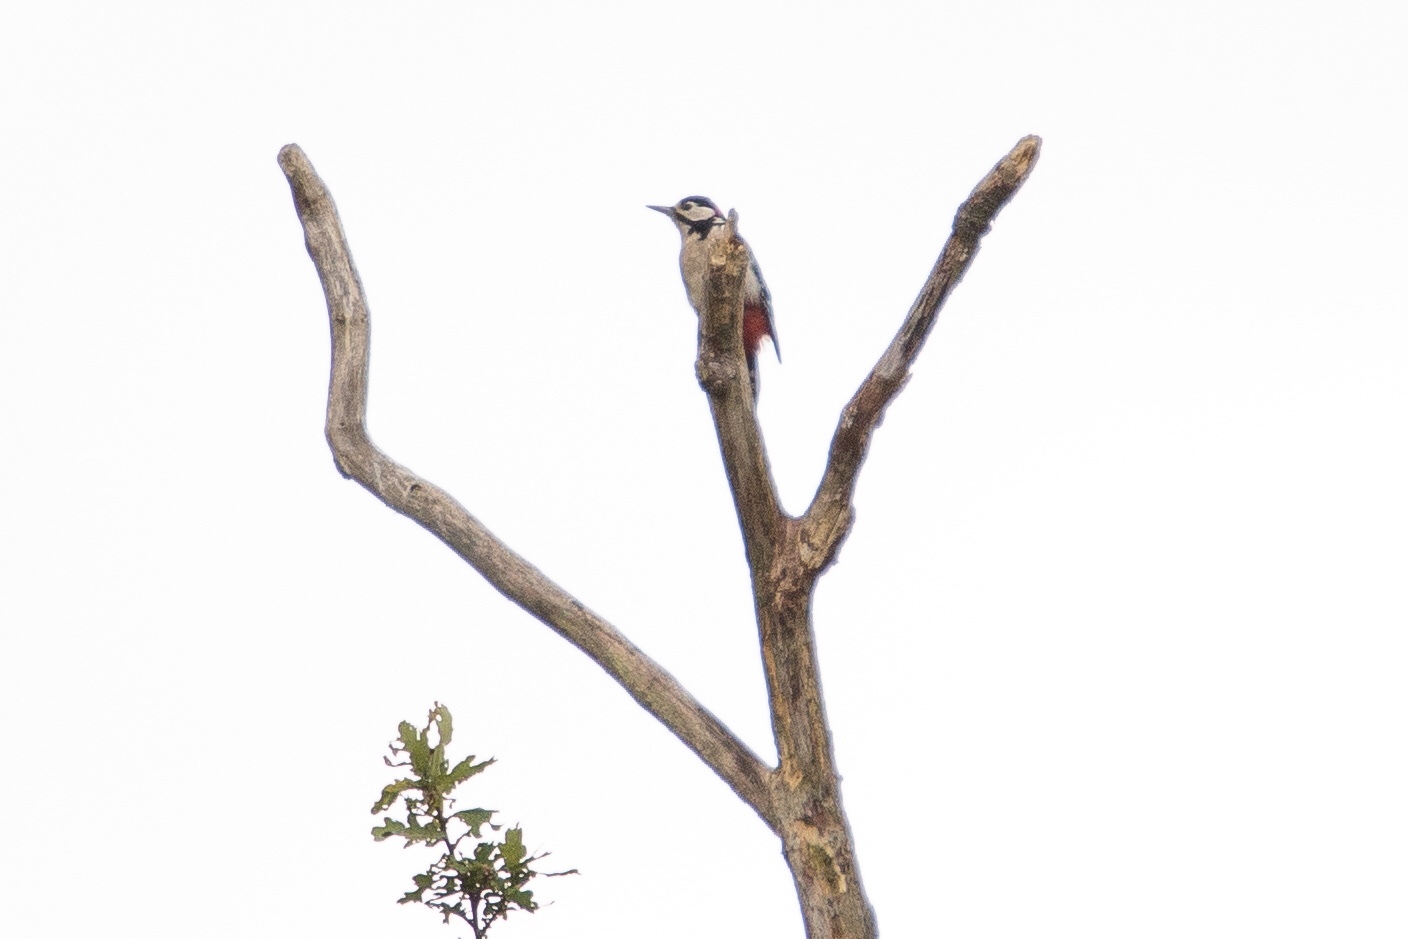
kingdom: Animalia
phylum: Chordata
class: Aves
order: Piciformes
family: Picidae
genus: Dendrocopos
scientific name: Dendrocopos major
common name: Great spotted woodpecker
